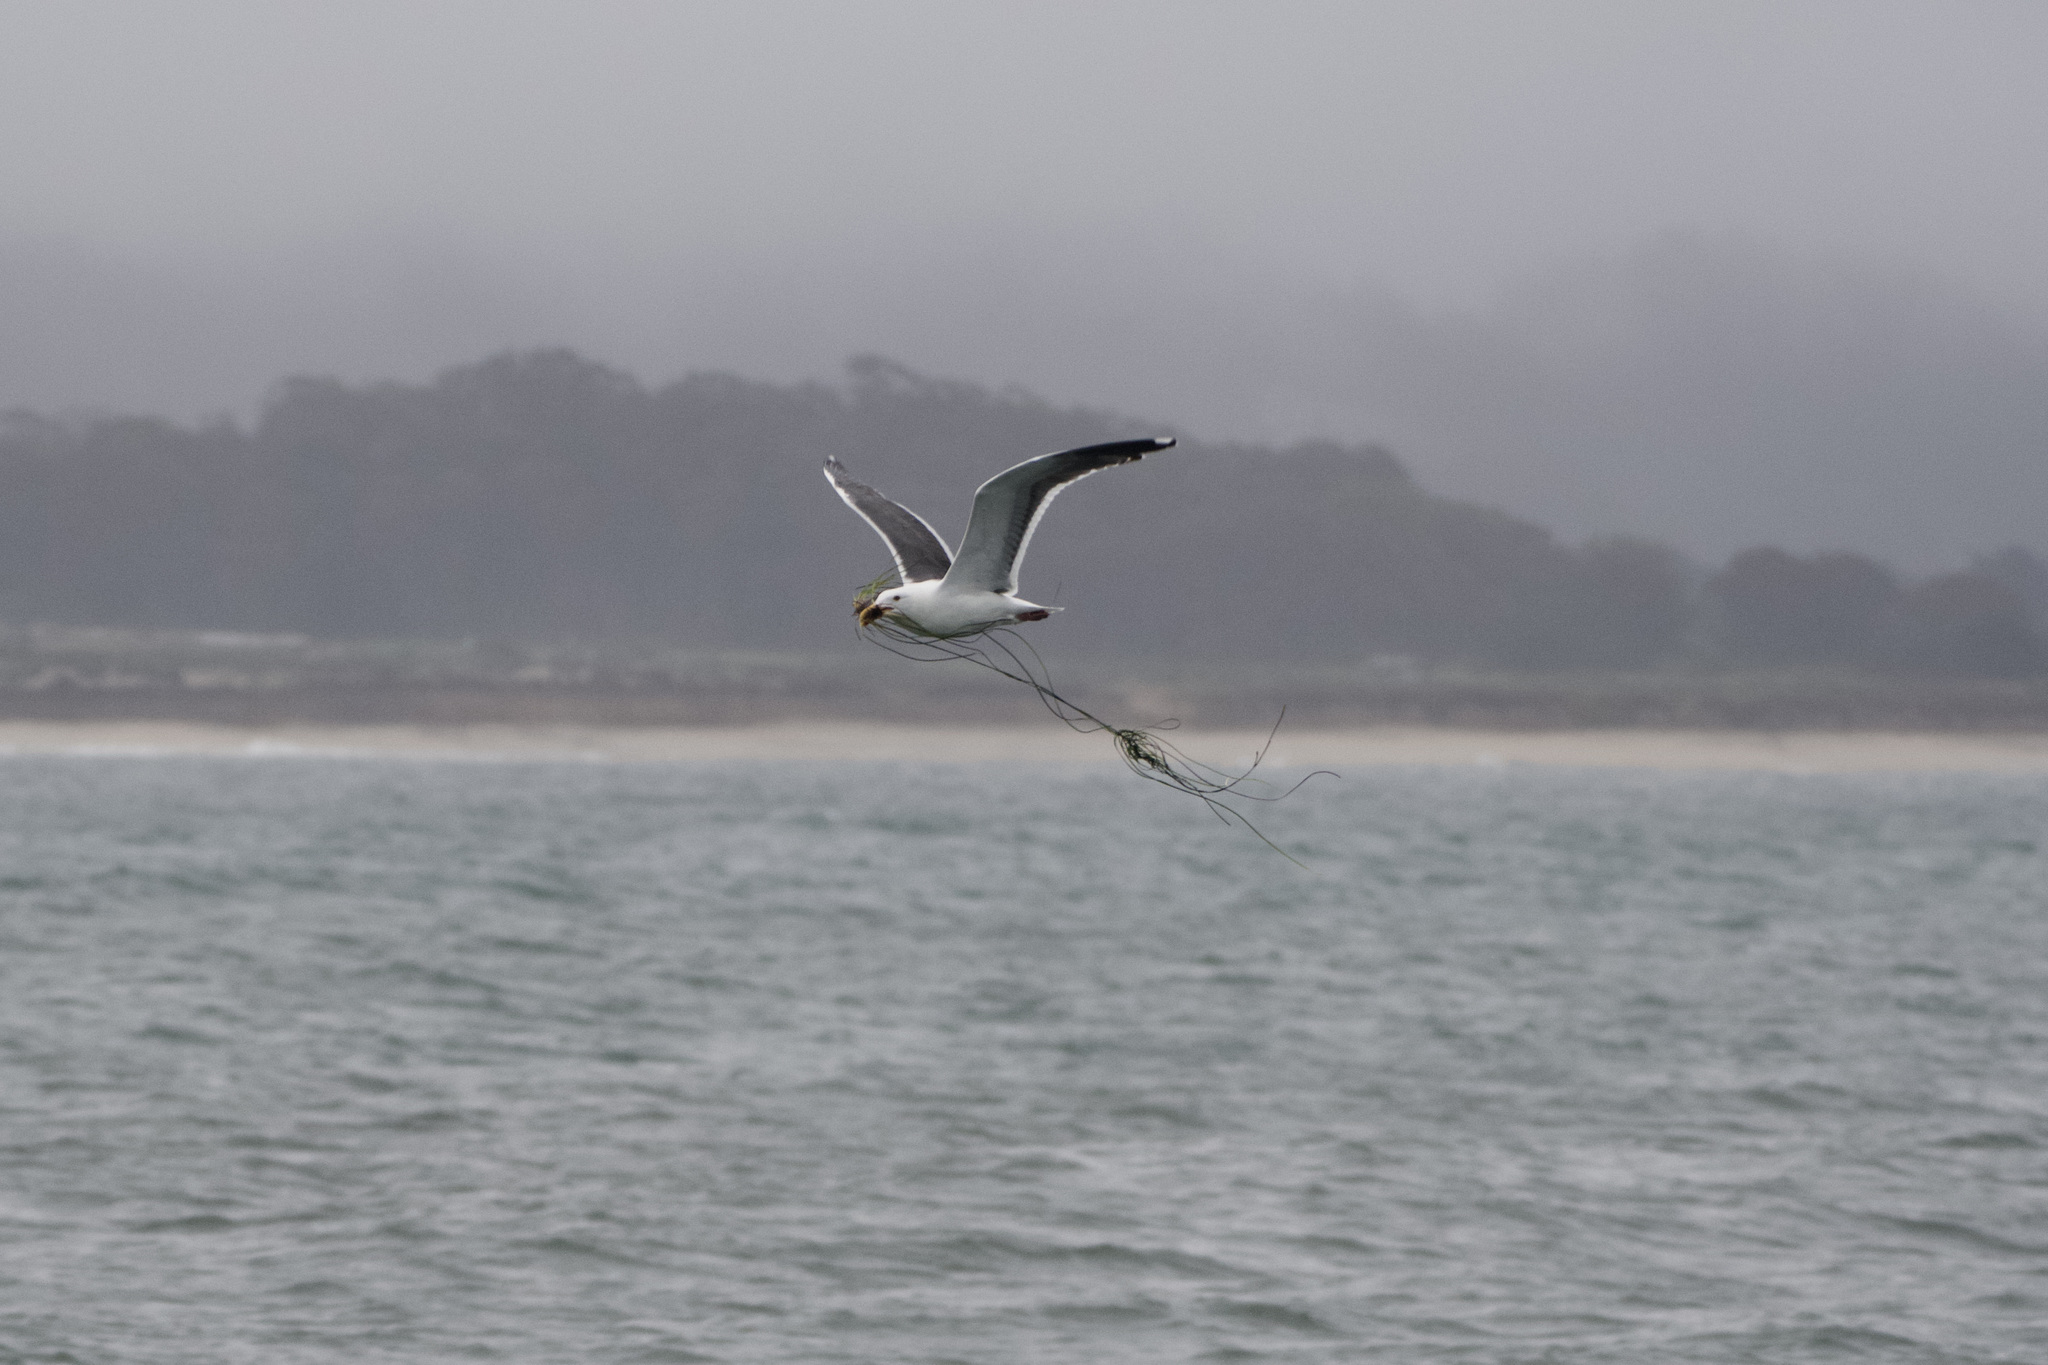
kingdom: Animalia
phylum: Chordata
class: Aves
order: Charadriiformes
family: Laridae
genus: Larus
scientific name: Larus occidentalis
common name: Western gull
